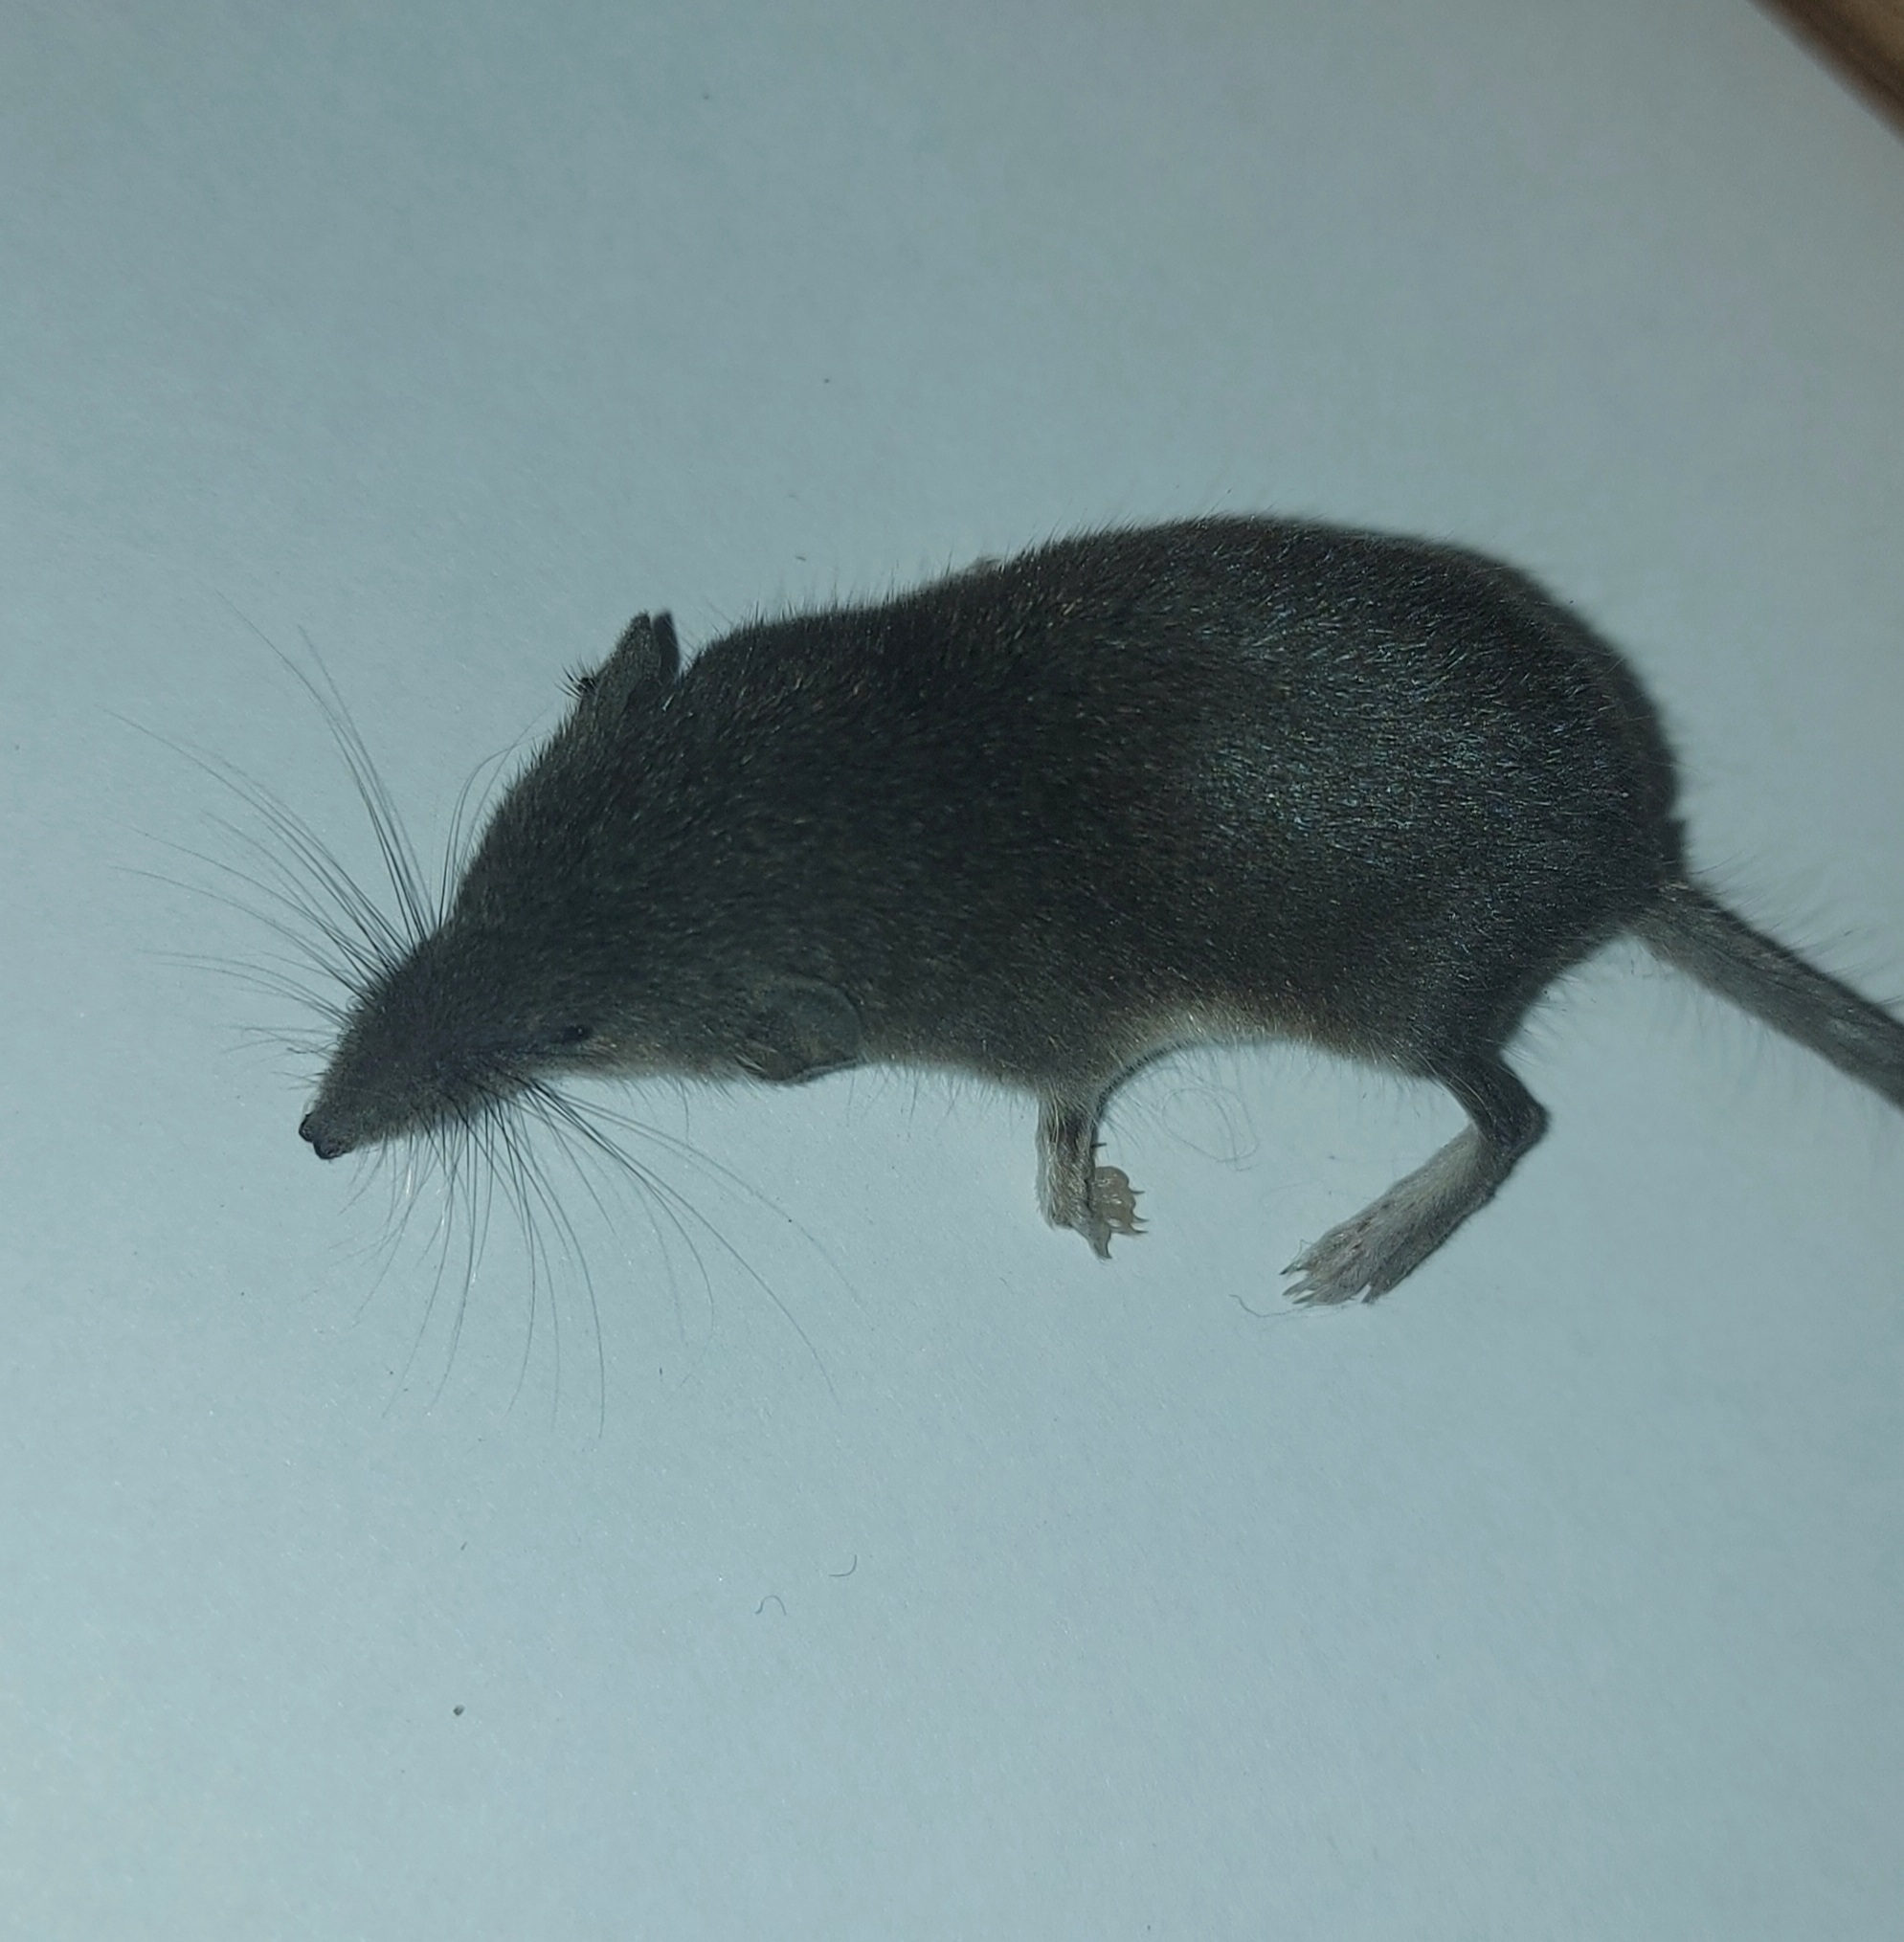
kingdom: Animalia
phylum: Chordata
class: Mammalia
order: Soricomorpha
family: Soricidae
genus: Crocidura
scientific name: Crocidura suaveolens
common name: Lesser white-toothed shrew
